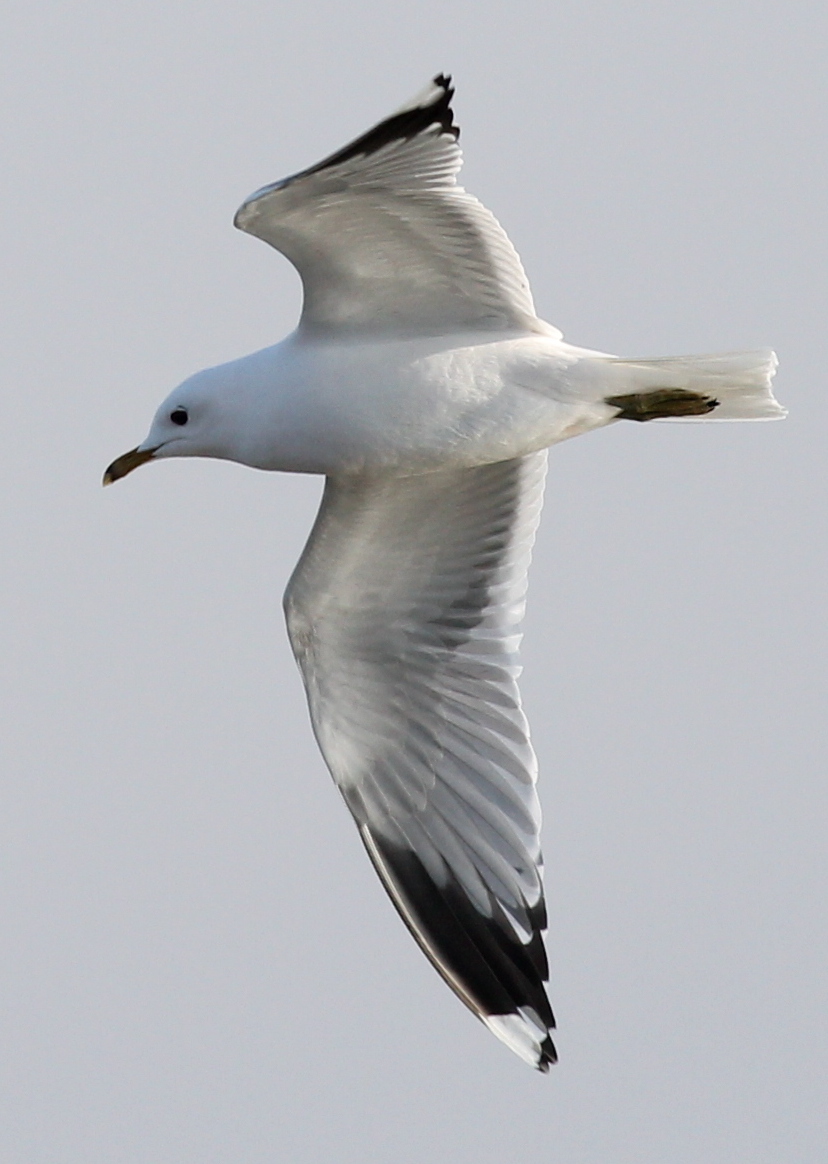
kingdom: Animalia
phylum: Chordata
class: Aves
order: Charadriiformes
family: Laridae
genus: Larus
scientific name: Larus canus
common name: Mew gull
